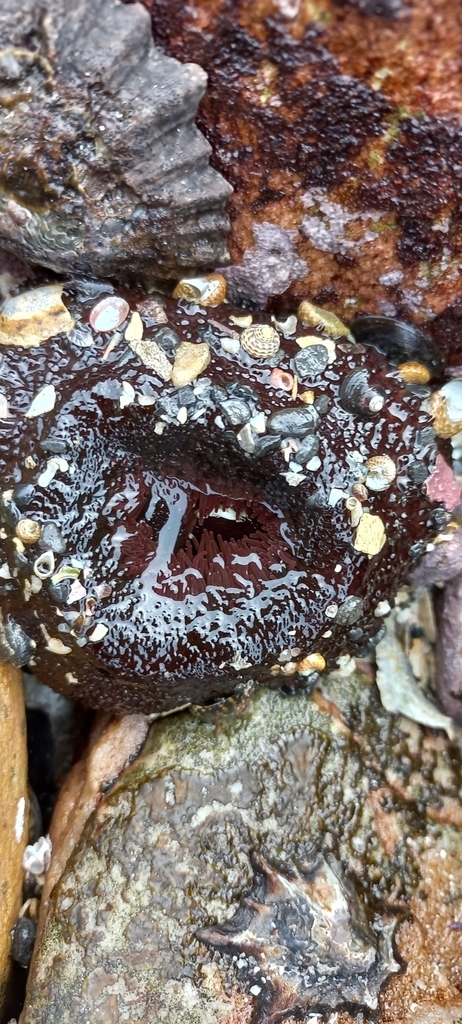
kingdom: Animalia
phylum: Cnidaria
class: Anthozoa
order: Actiniaria
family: Actiniidae
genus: Bunodactis
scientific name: Bunodactis reynaudi
